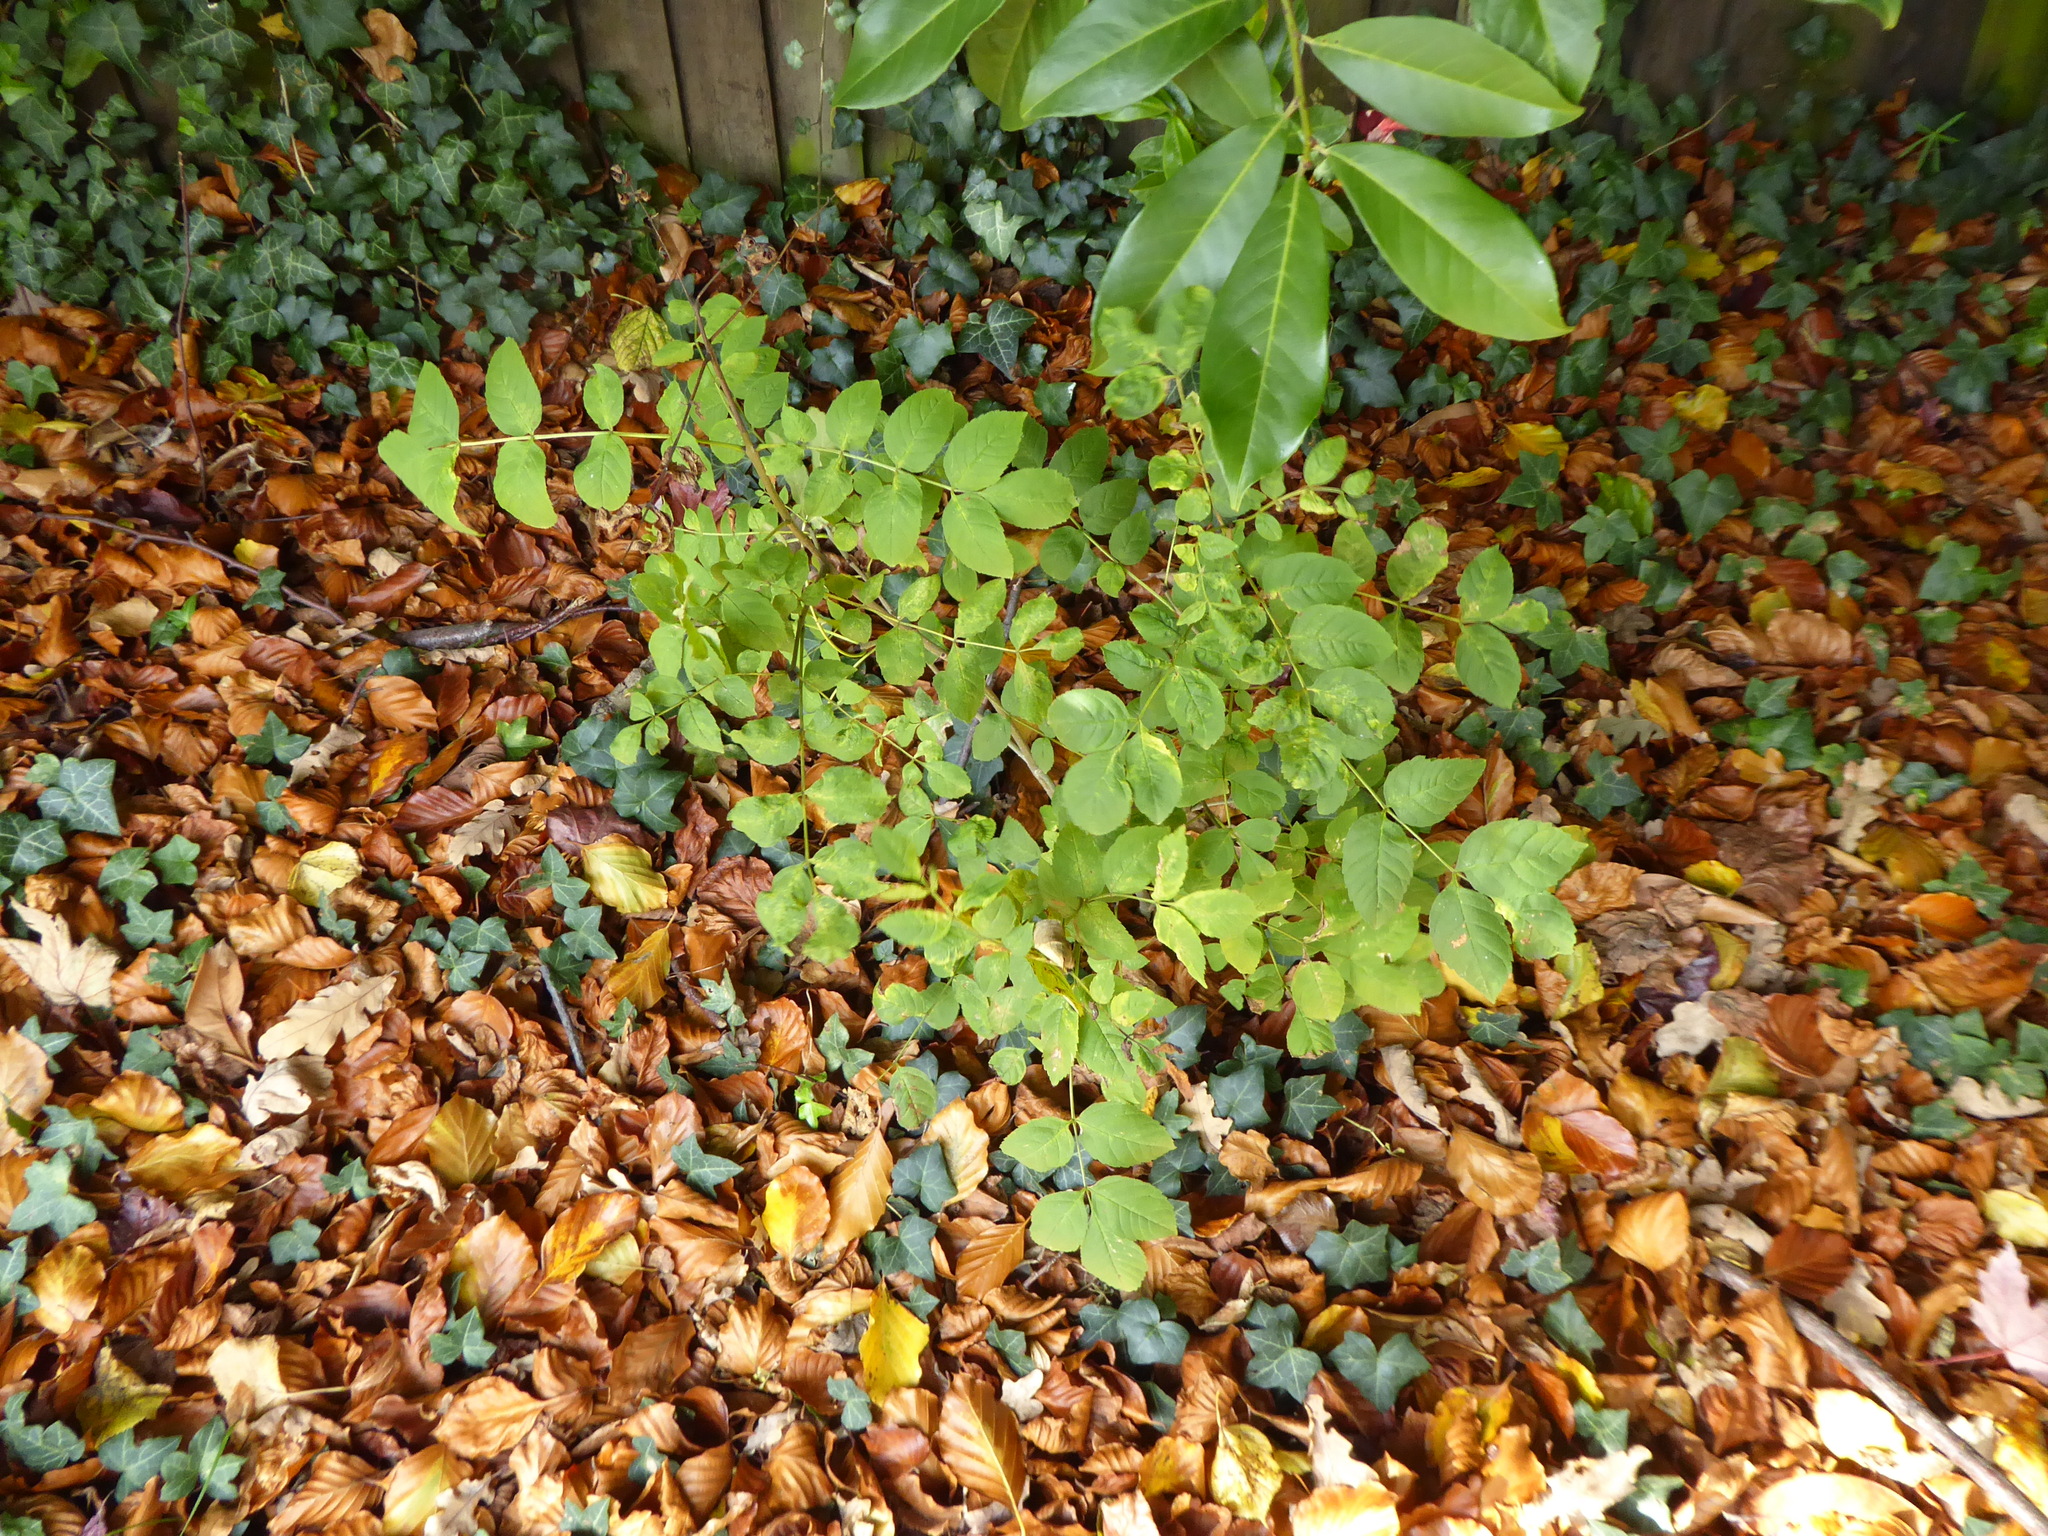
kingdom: Plantae
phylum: Tracheophyta
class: Magnoliopsida
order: Lamiales
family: Oleaceae
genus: Fraxinus
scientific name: Fraxinus excelsior
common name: European ash
